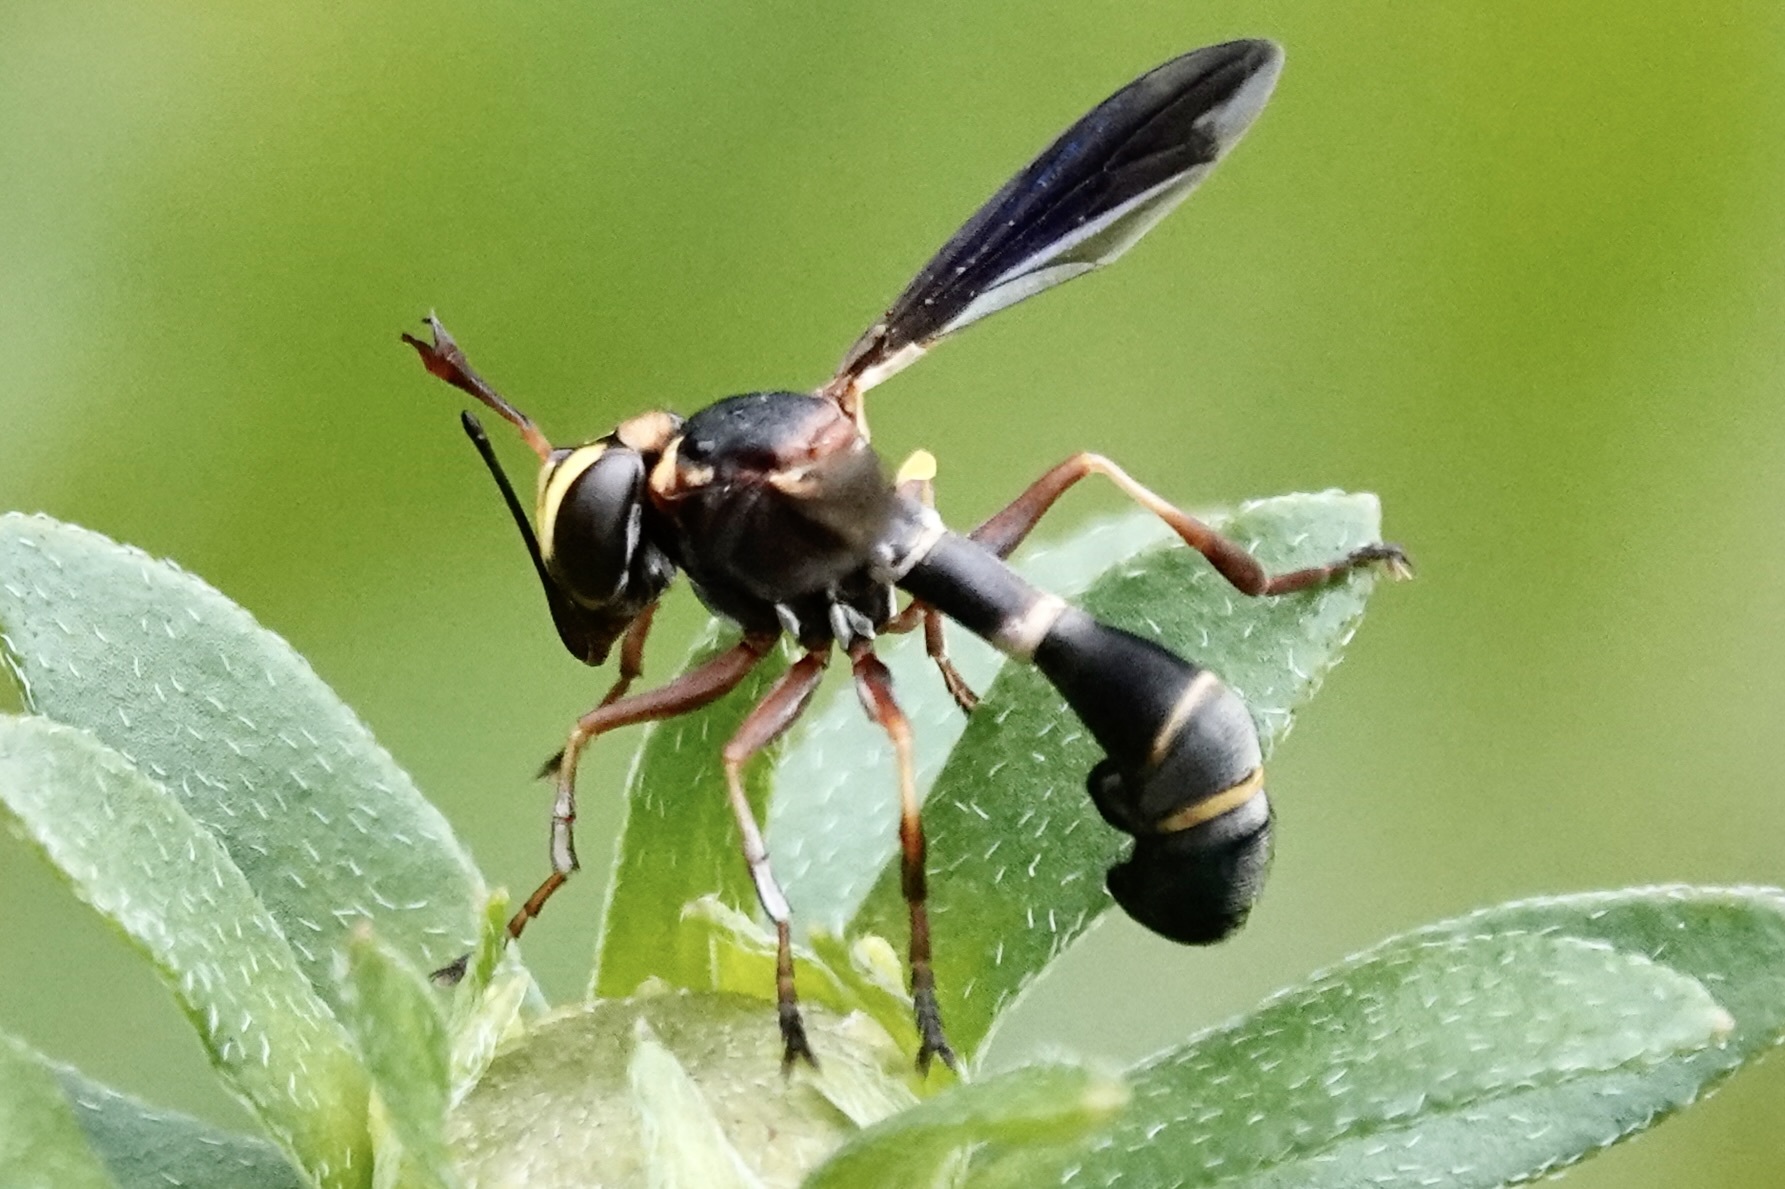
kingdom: Animalia
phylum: Arthropoda
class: Insecta
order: Diptera
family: Conopidae
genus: Physocephala
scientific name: Physocephala sagittaria
